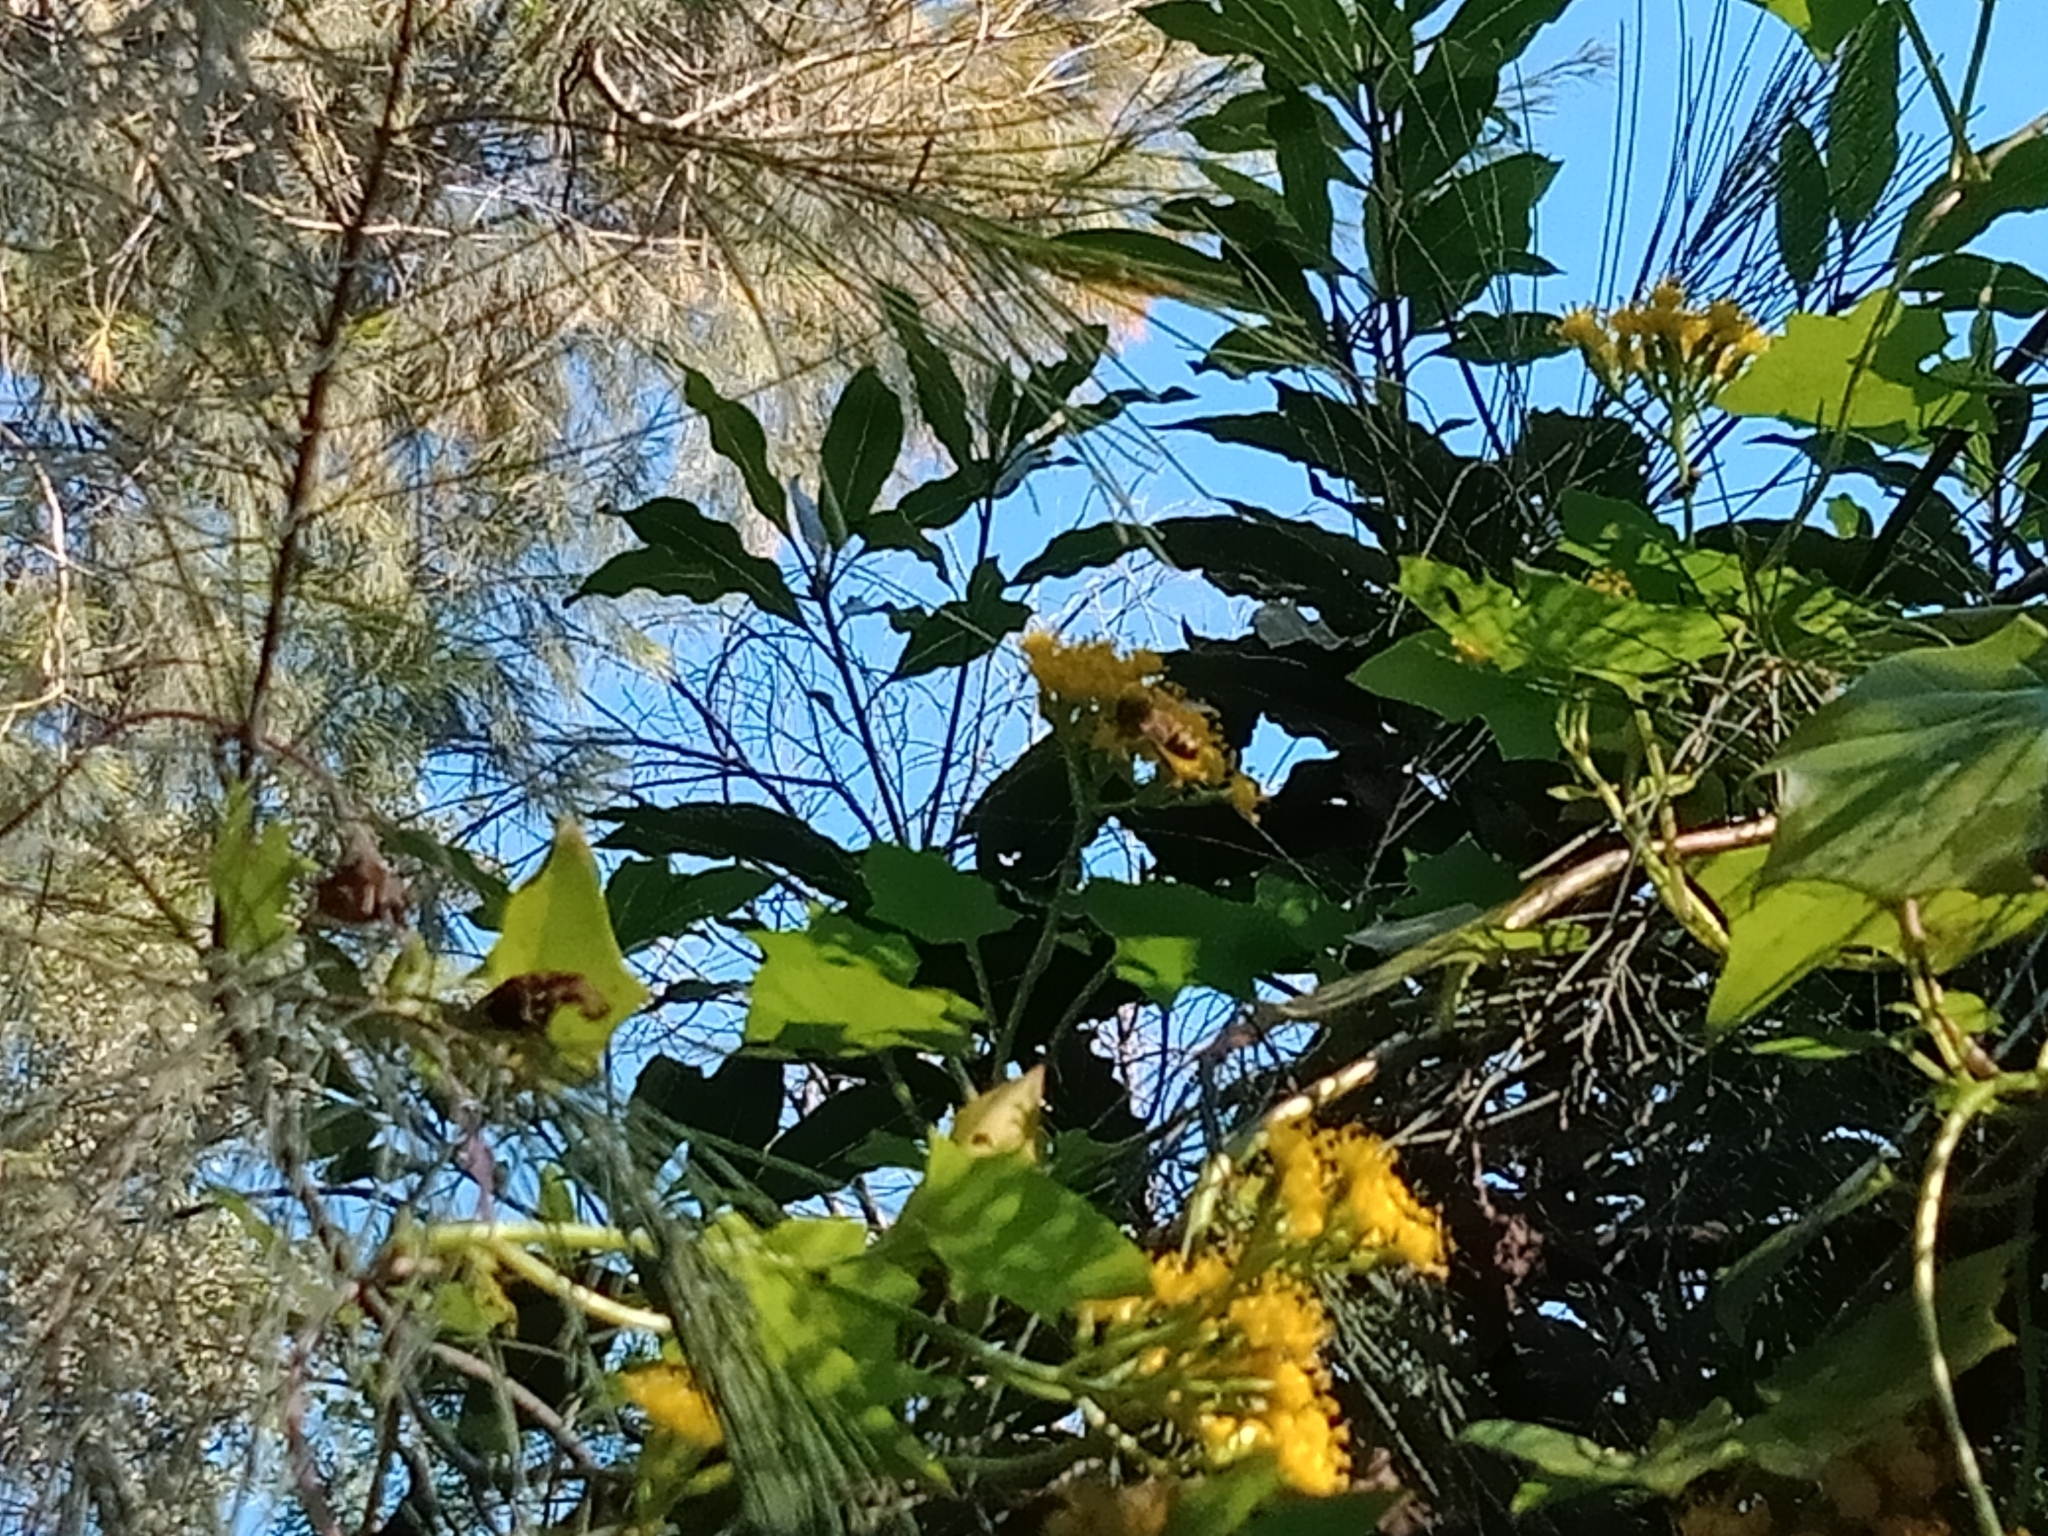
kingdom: Plantae
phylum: Tracheophyta
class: Magnoliopsida
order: Asterales
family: Asteraceae
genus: Delairea
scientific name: Delairea odorata
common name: Cape-ivy
